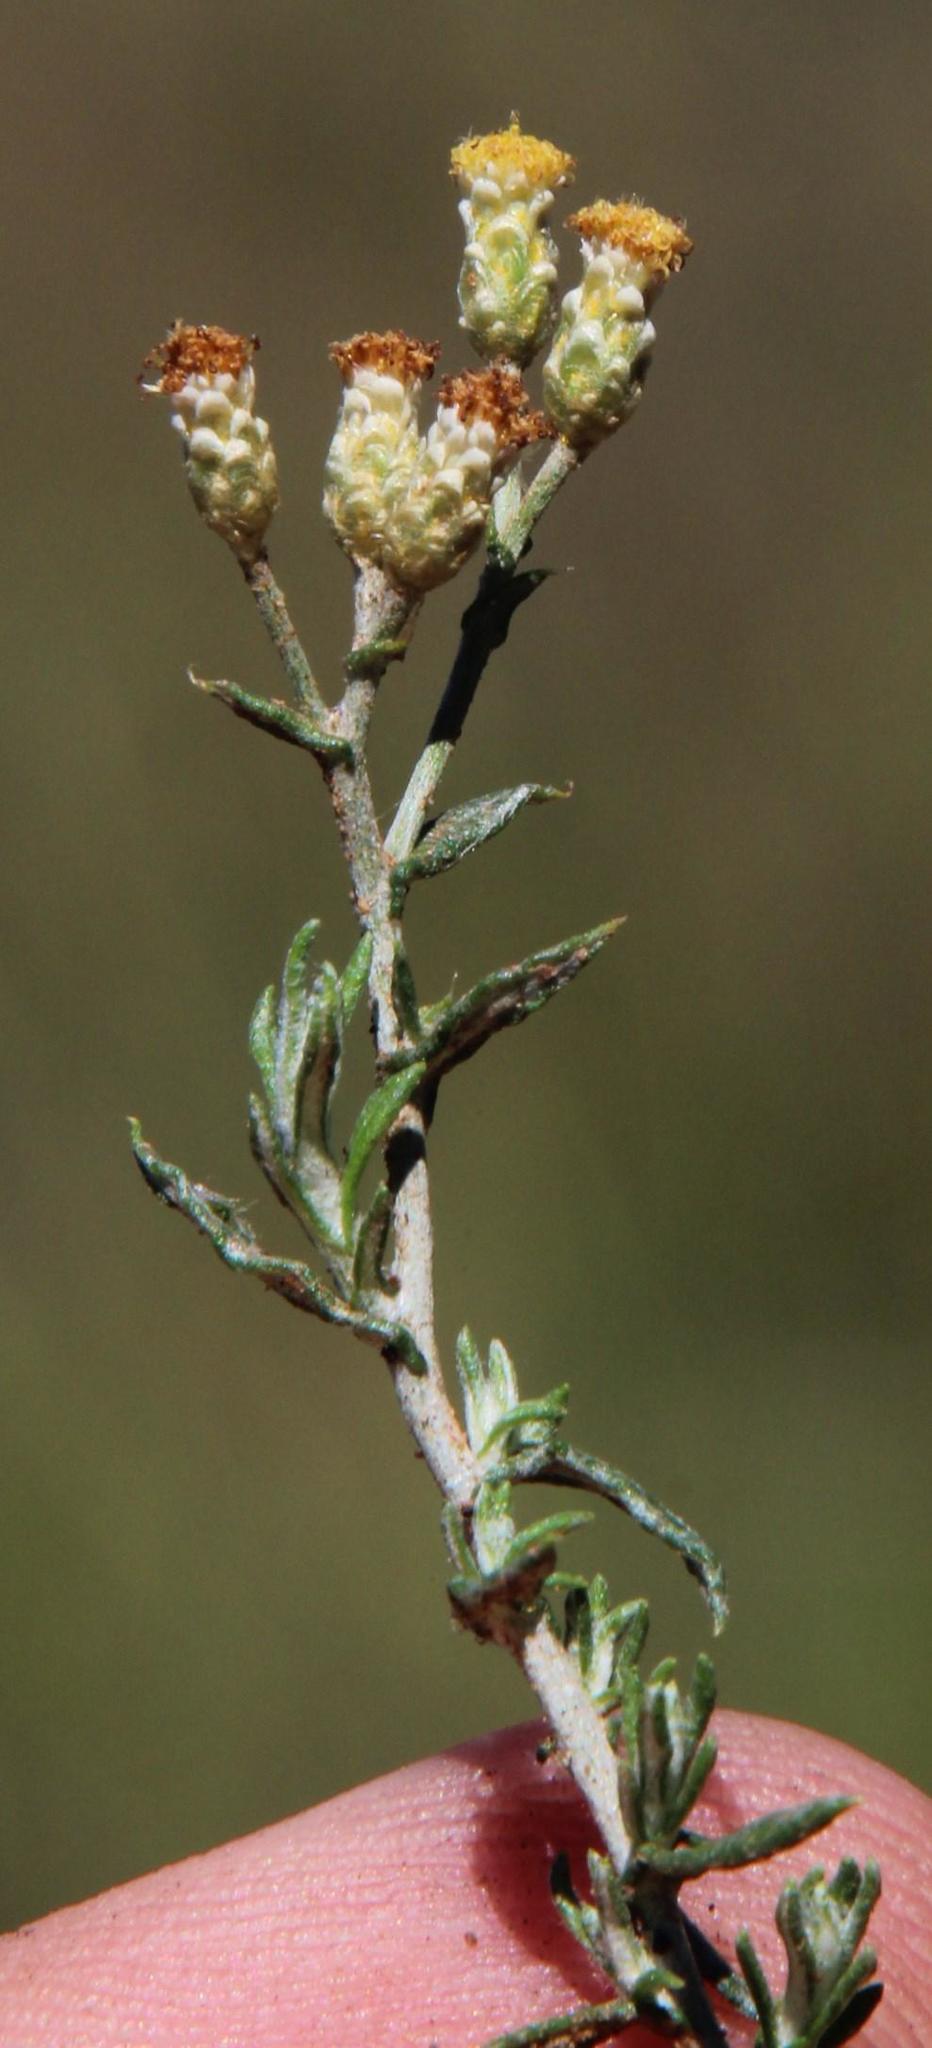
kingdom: Plantae
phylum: Tracheophyta
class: Magnoliopsida
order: Asterales
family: Asteraceae
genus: Helichrysum
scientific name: Helichrysum rosum
